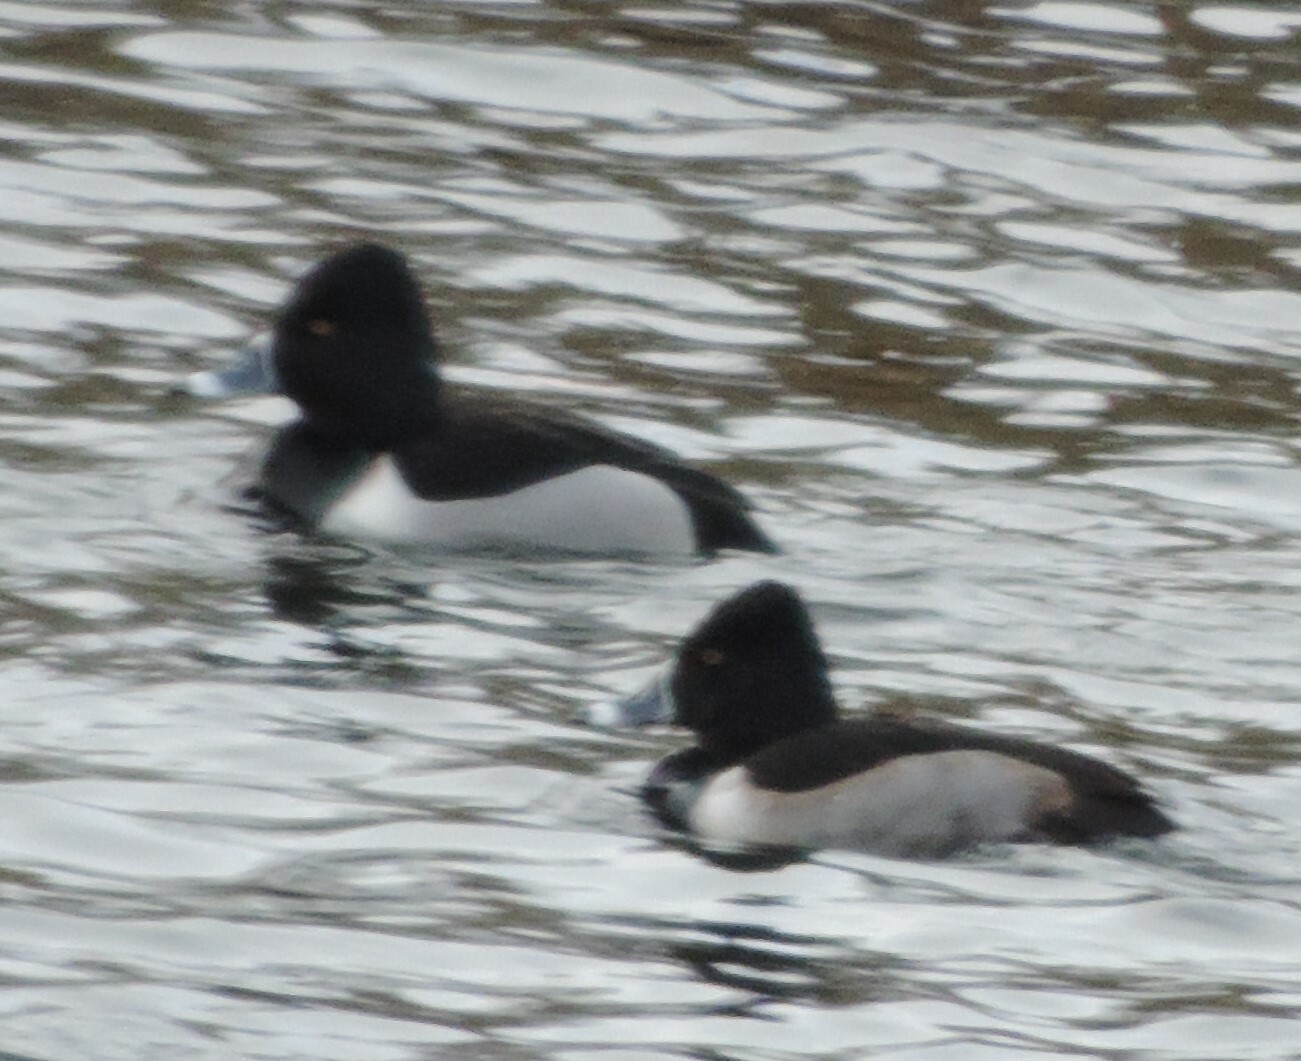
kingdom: Animalia
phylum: Chordata
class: Aves
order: Anseriformes
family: Anatidae
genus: Aythya
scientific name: Aythya collaris
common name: Ring-necked duck
